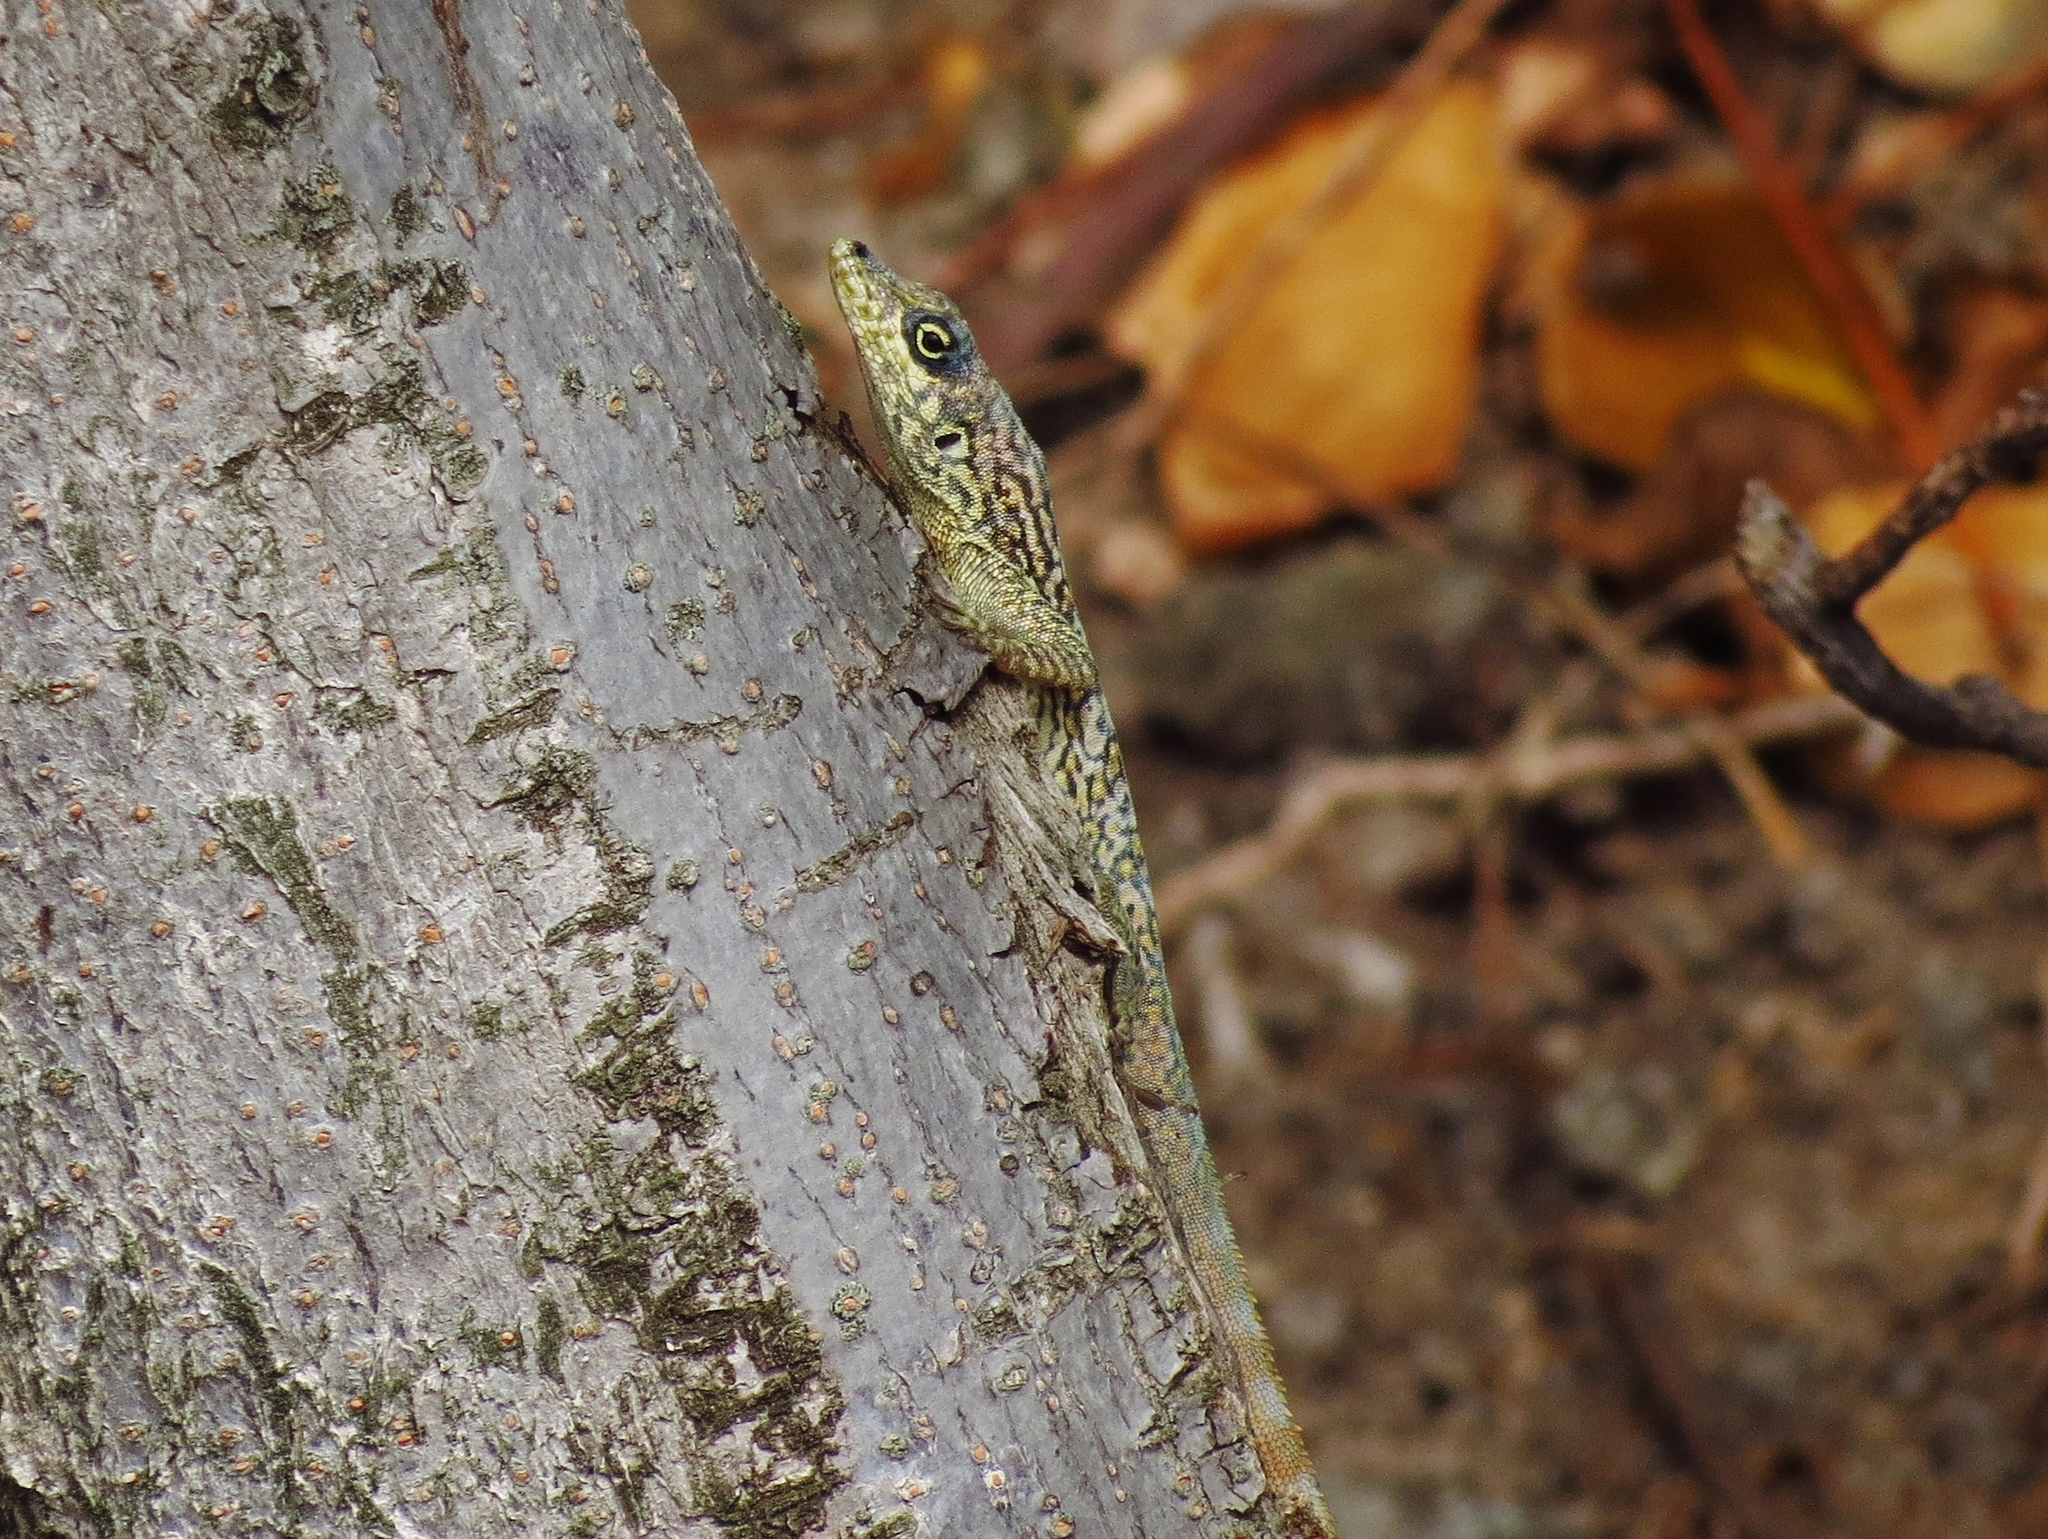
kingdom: Animalia
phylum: Chordata
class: Squamata
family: Dactyloidae
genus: Anolis
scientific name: Anolis roquet
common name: Martinique anole
